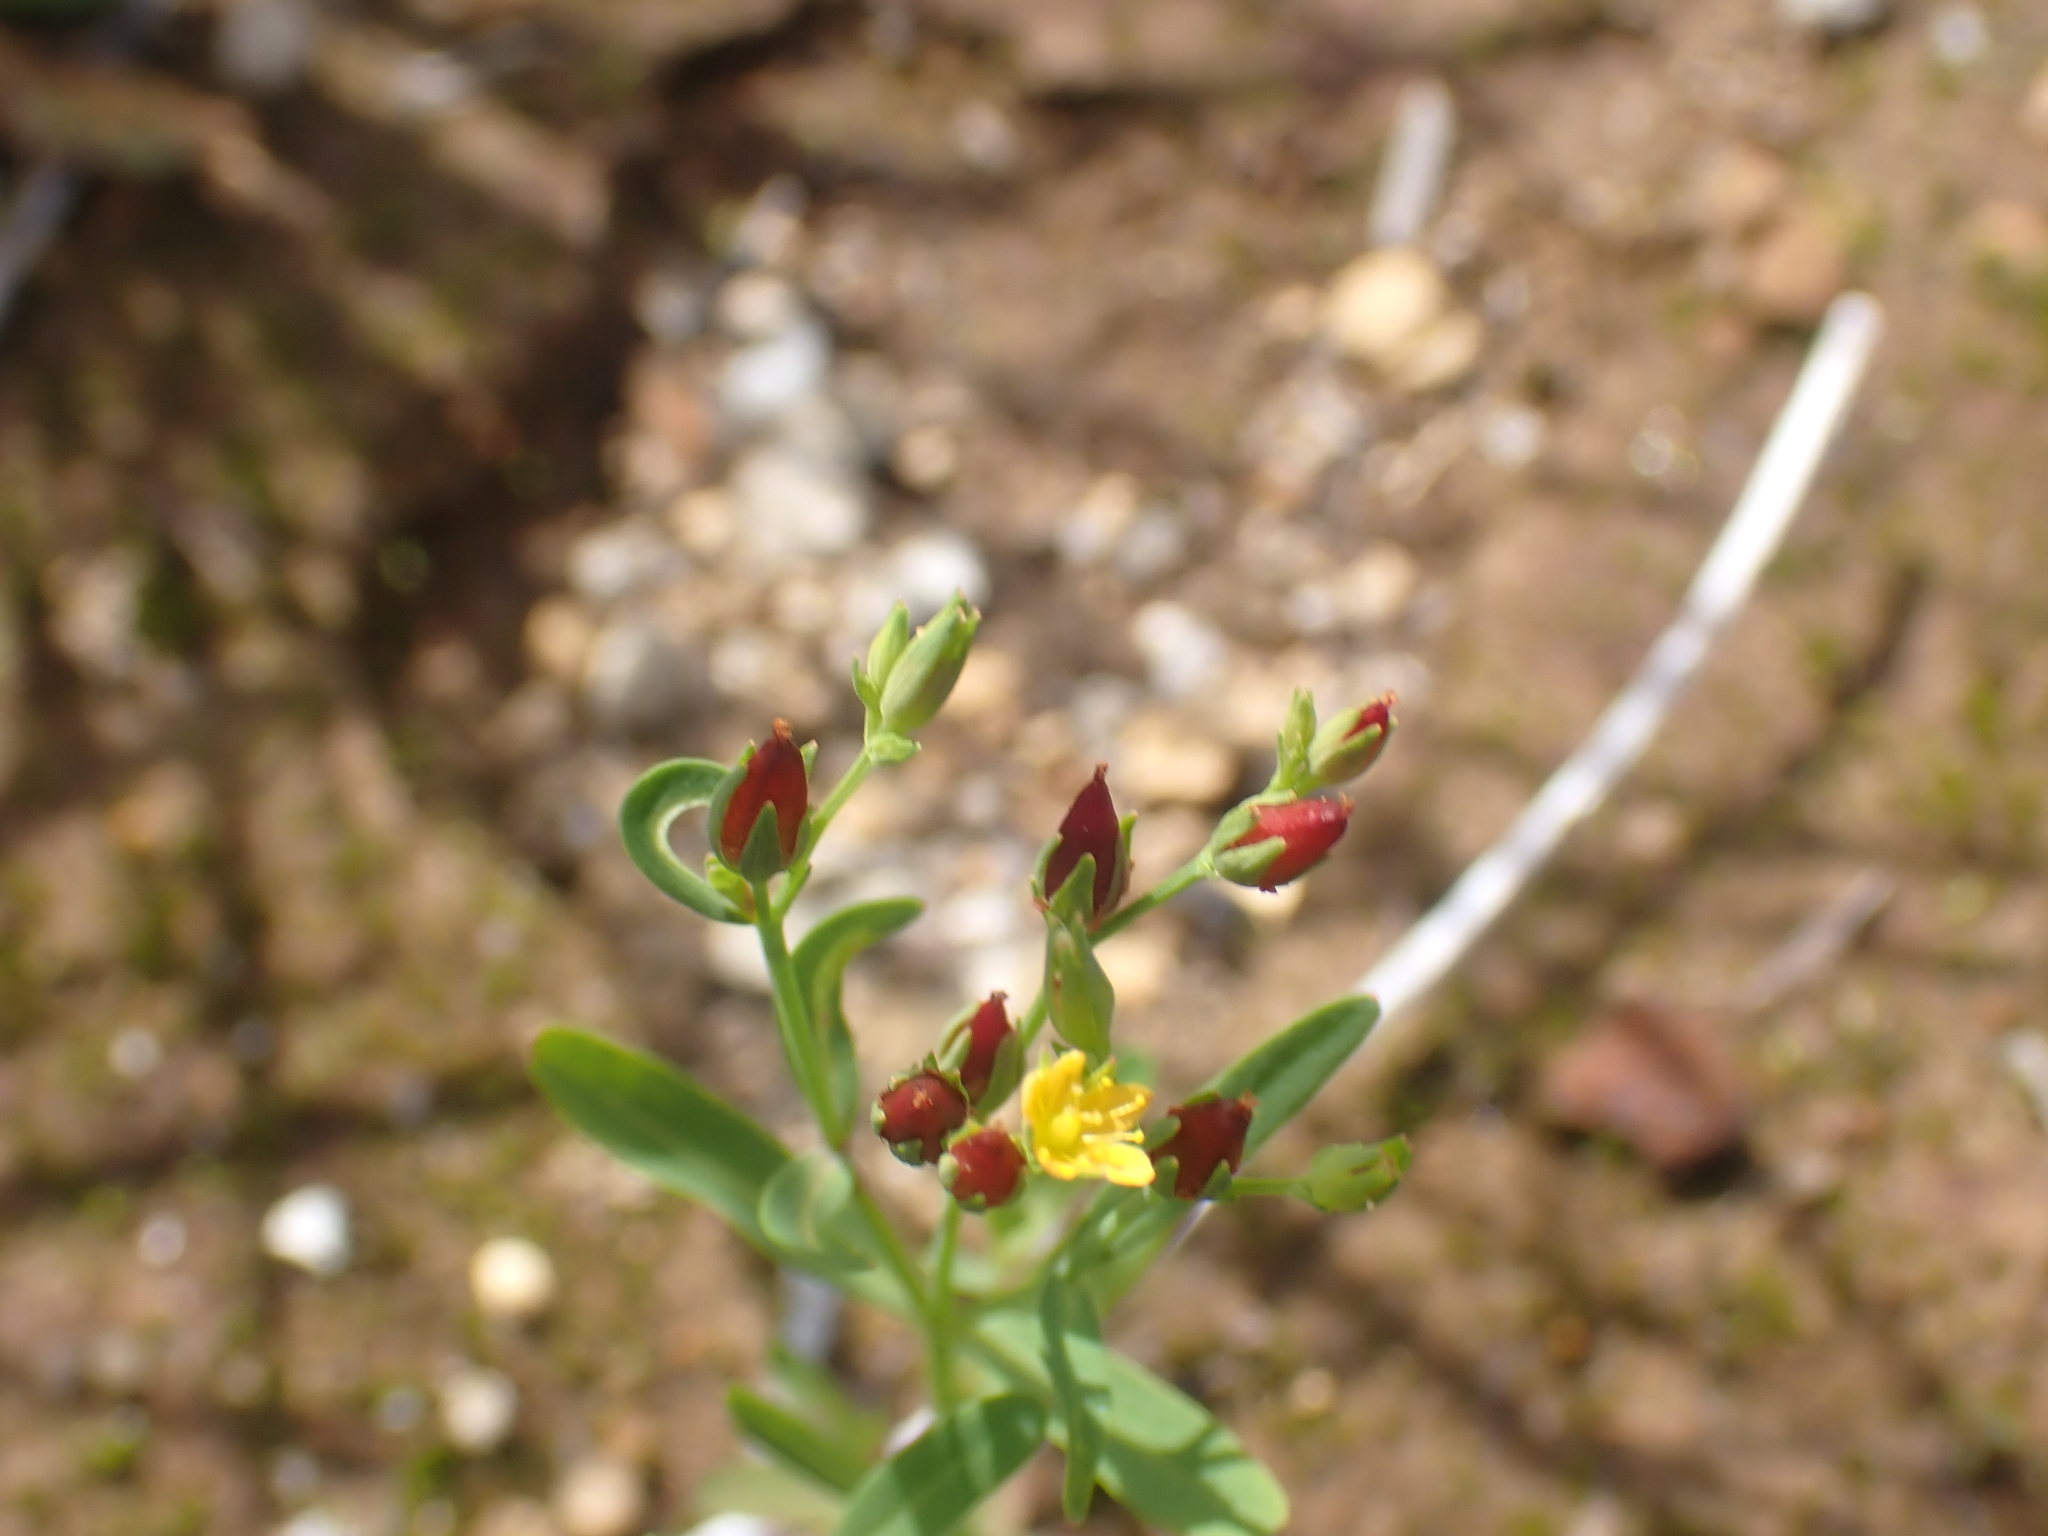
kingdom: Plantae
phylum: Tracheophyta
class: Magnoliopsida
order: Malpighiales
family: Hypericaceae
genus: Hypericum
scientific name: Hypericum canadense
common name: Irish st. john's-wort
